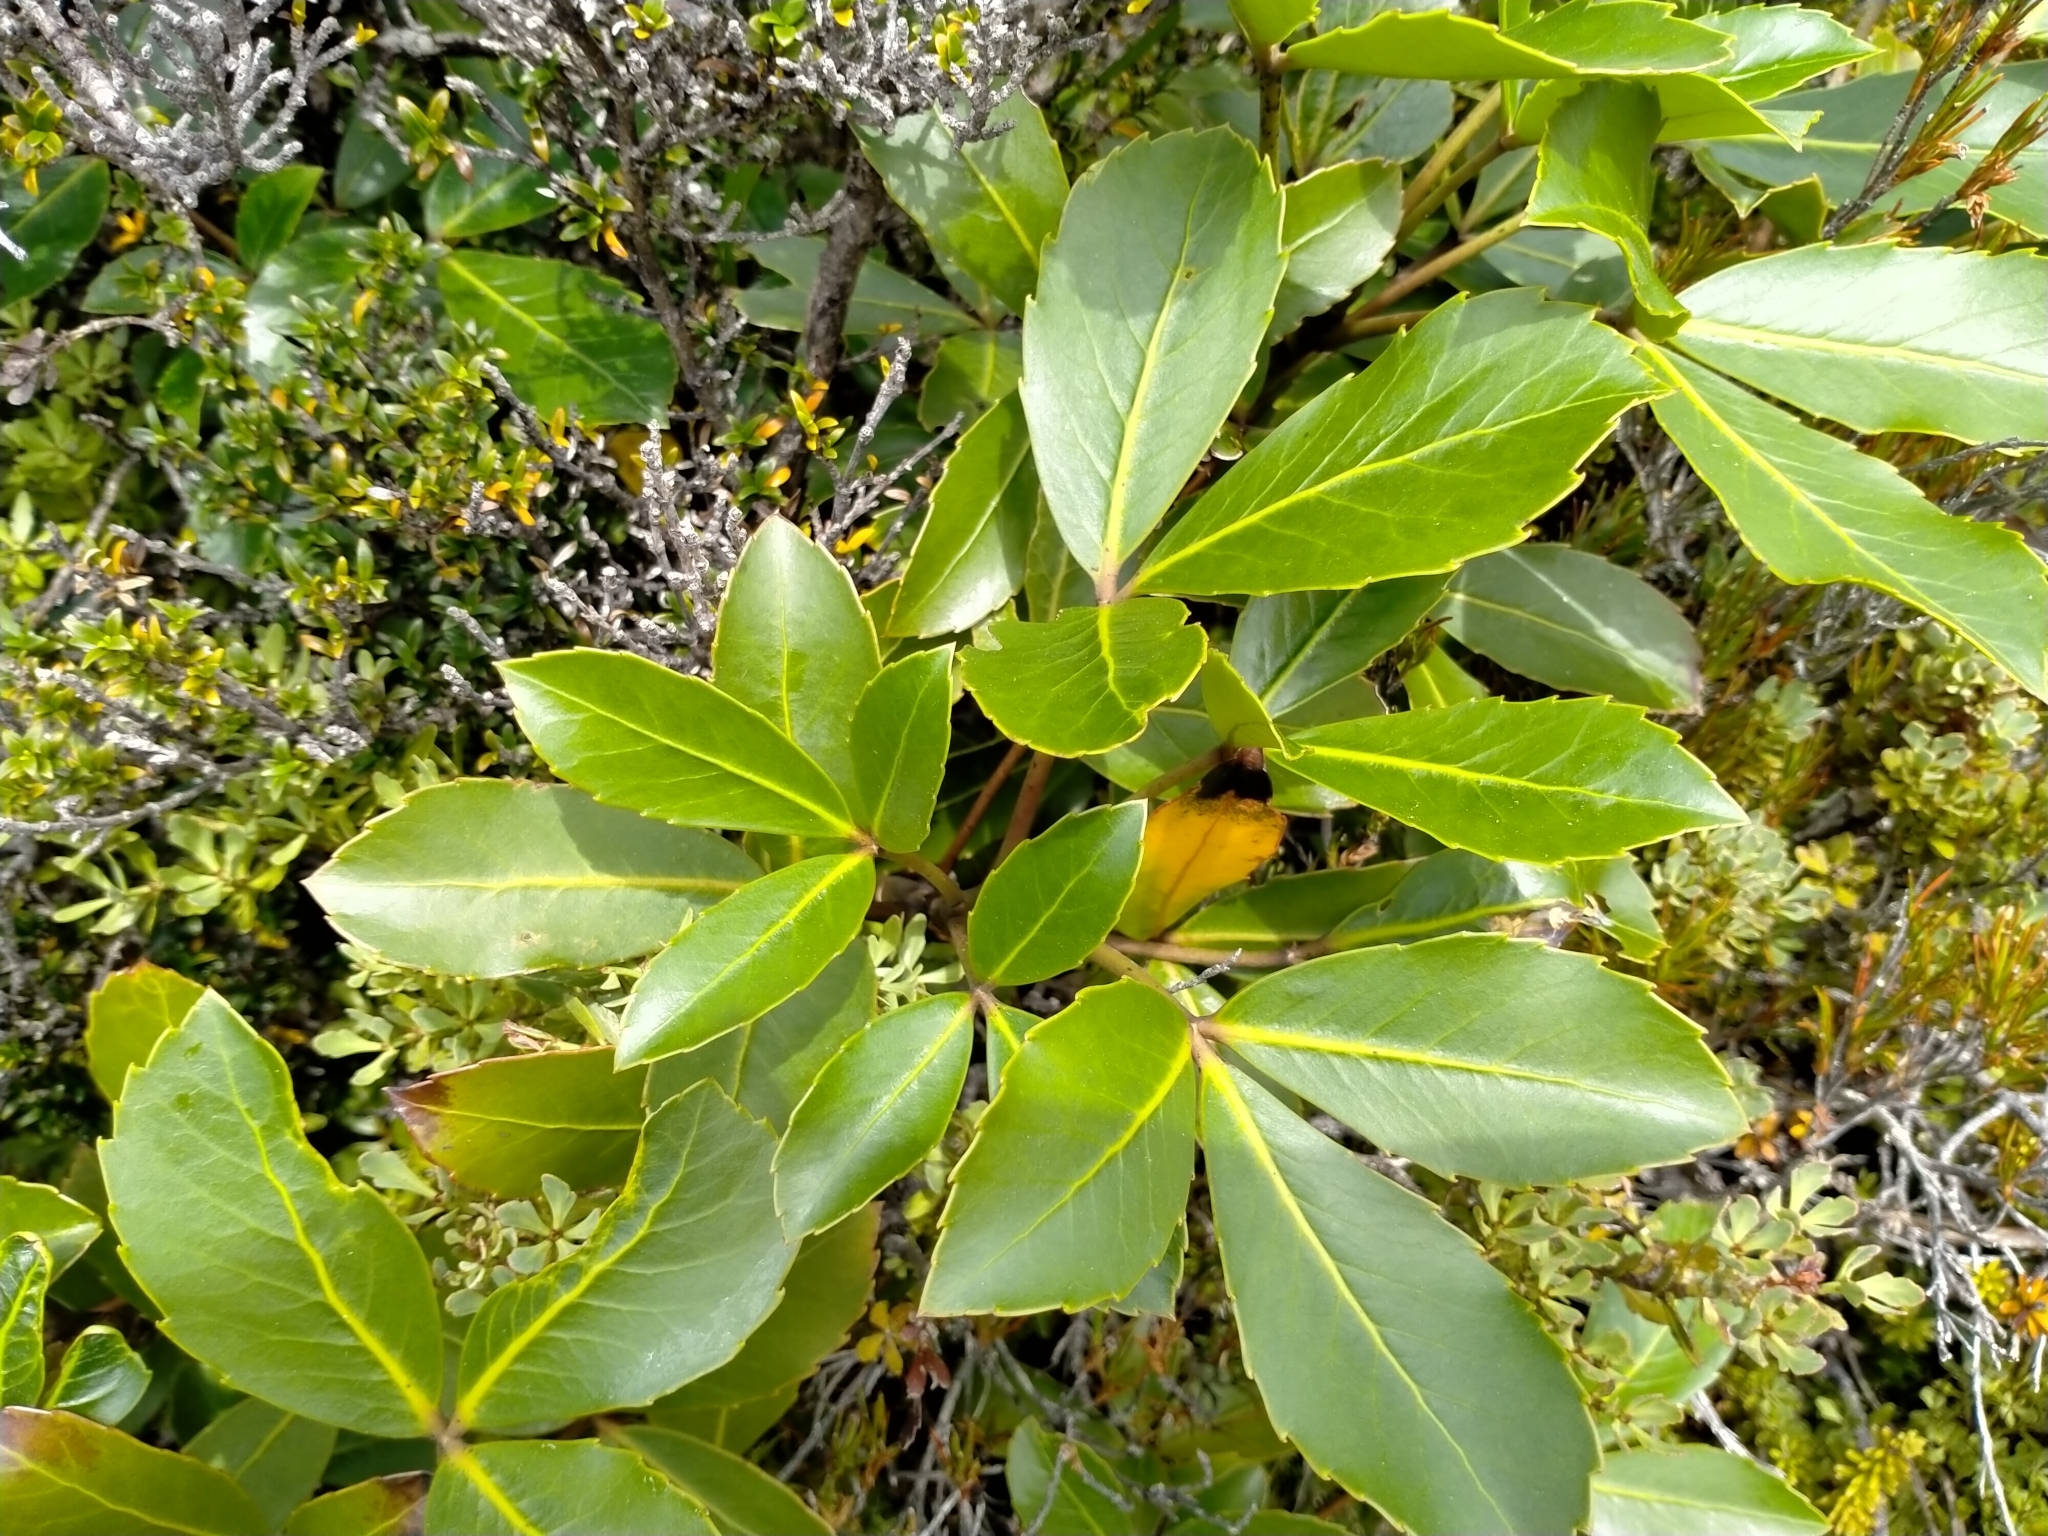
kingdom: Plantae
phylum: Tracheophyta
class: Magnoliopsida
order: Apiales
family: Araliaceae
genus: Neopanax
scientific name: Neopanax colensoi
